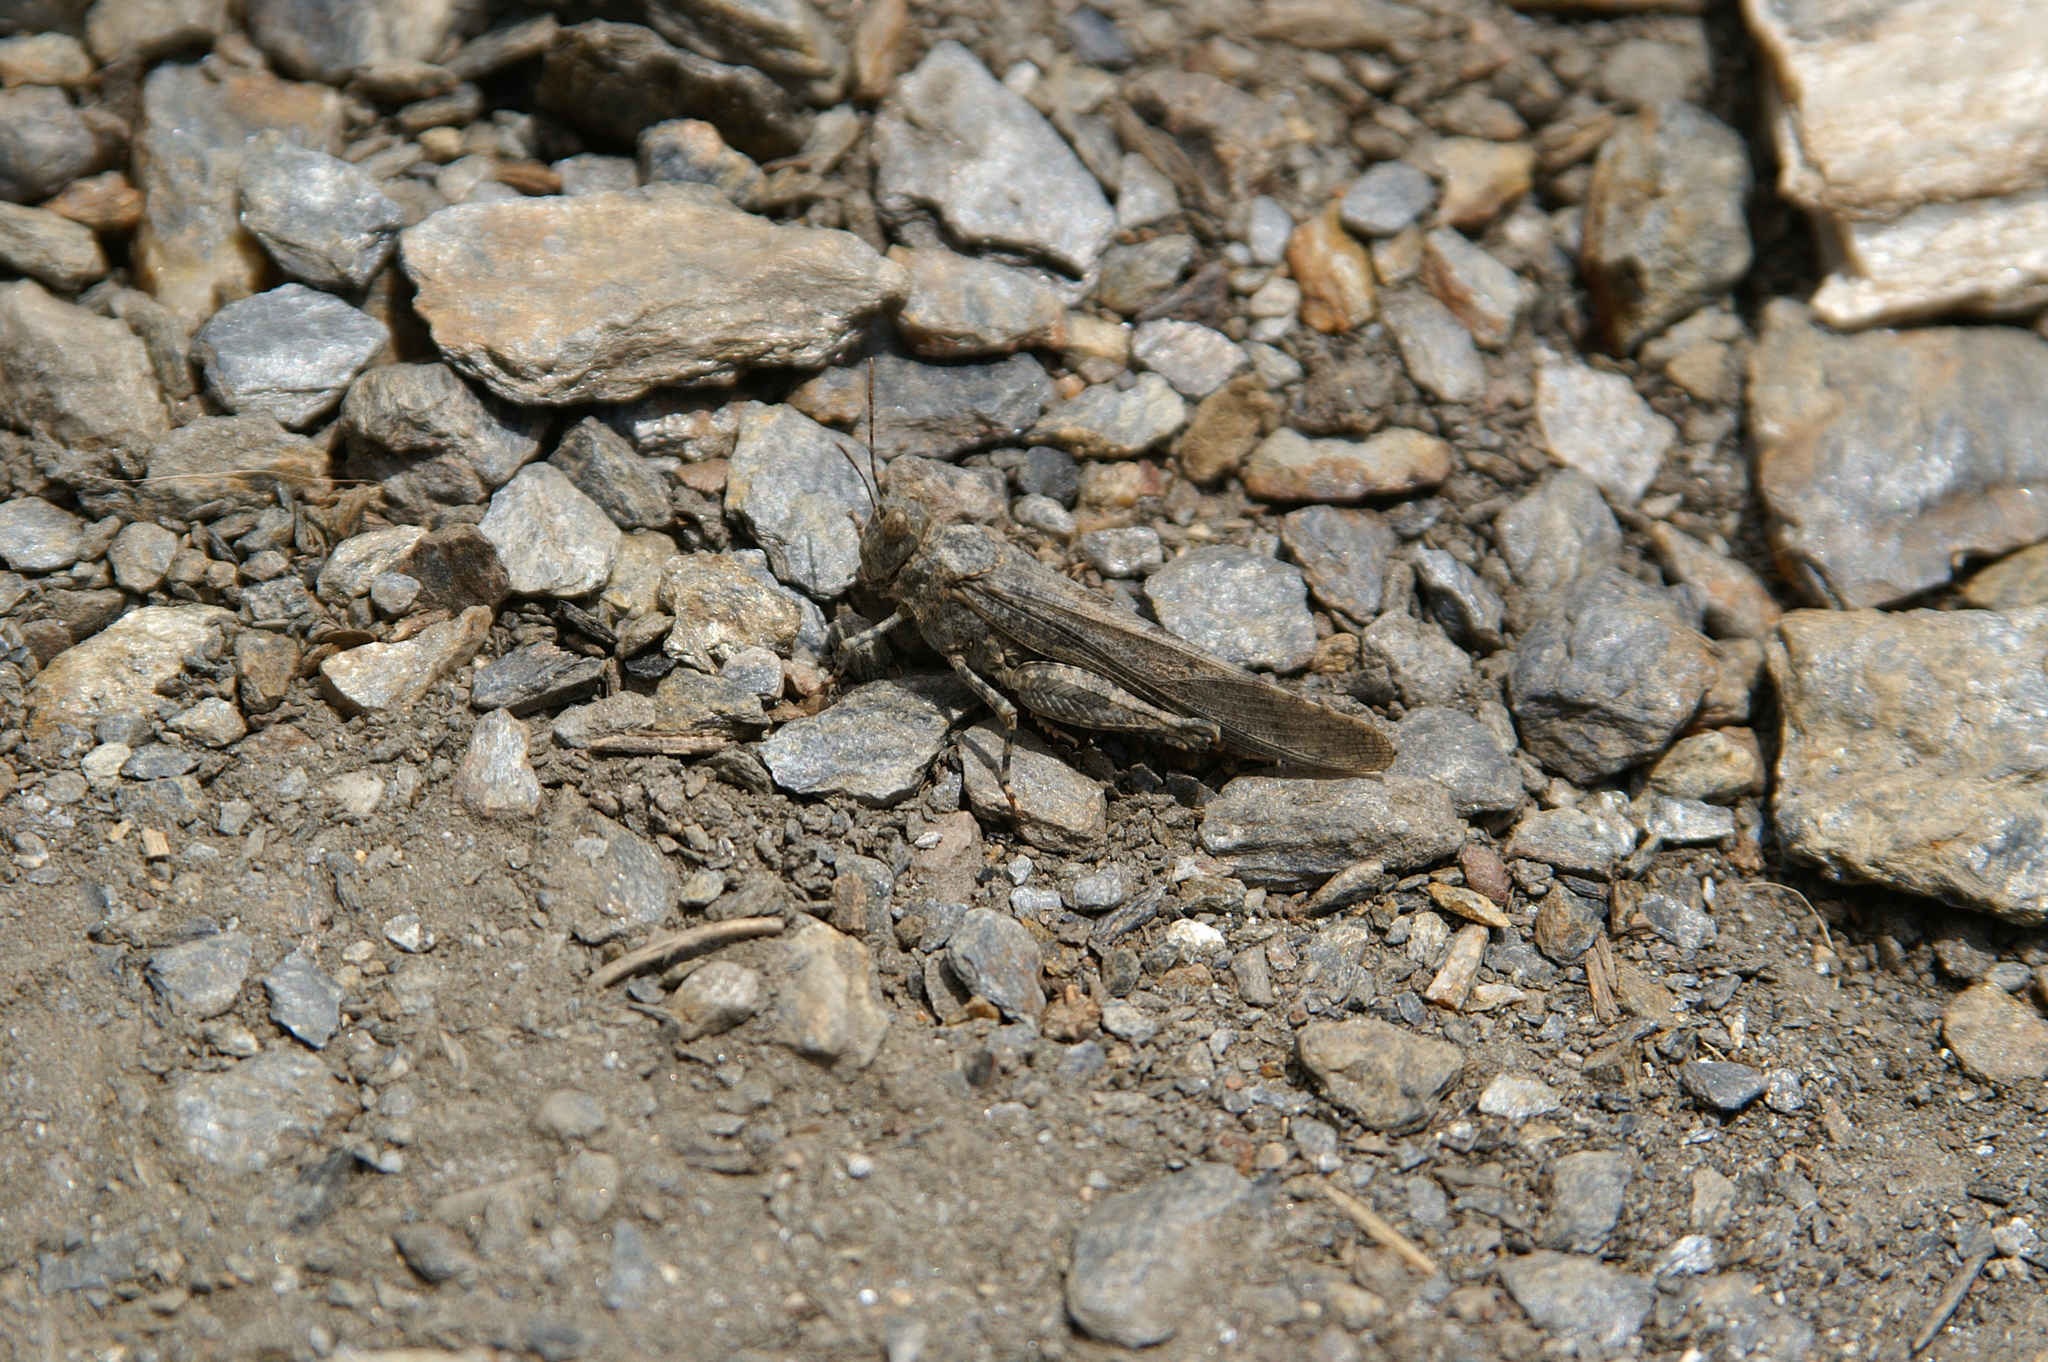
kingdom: Animalia
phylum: Arthropoda
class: Insecta
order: Orthoptera
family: Acrididae
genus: Sphingonotus
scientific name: Sphingonotus rubescens
